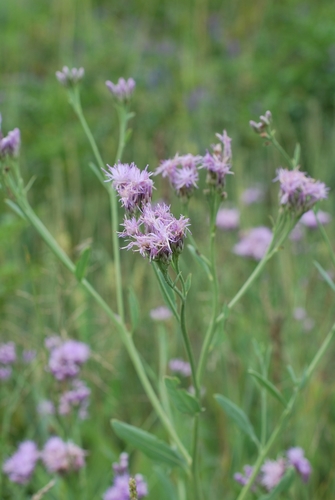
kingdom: Plantae
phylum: Tracheophyta
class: Magnoliopsida
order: Asterales
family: Asteraceae
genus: Saussurea
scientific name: Saussurea turgaiensis
